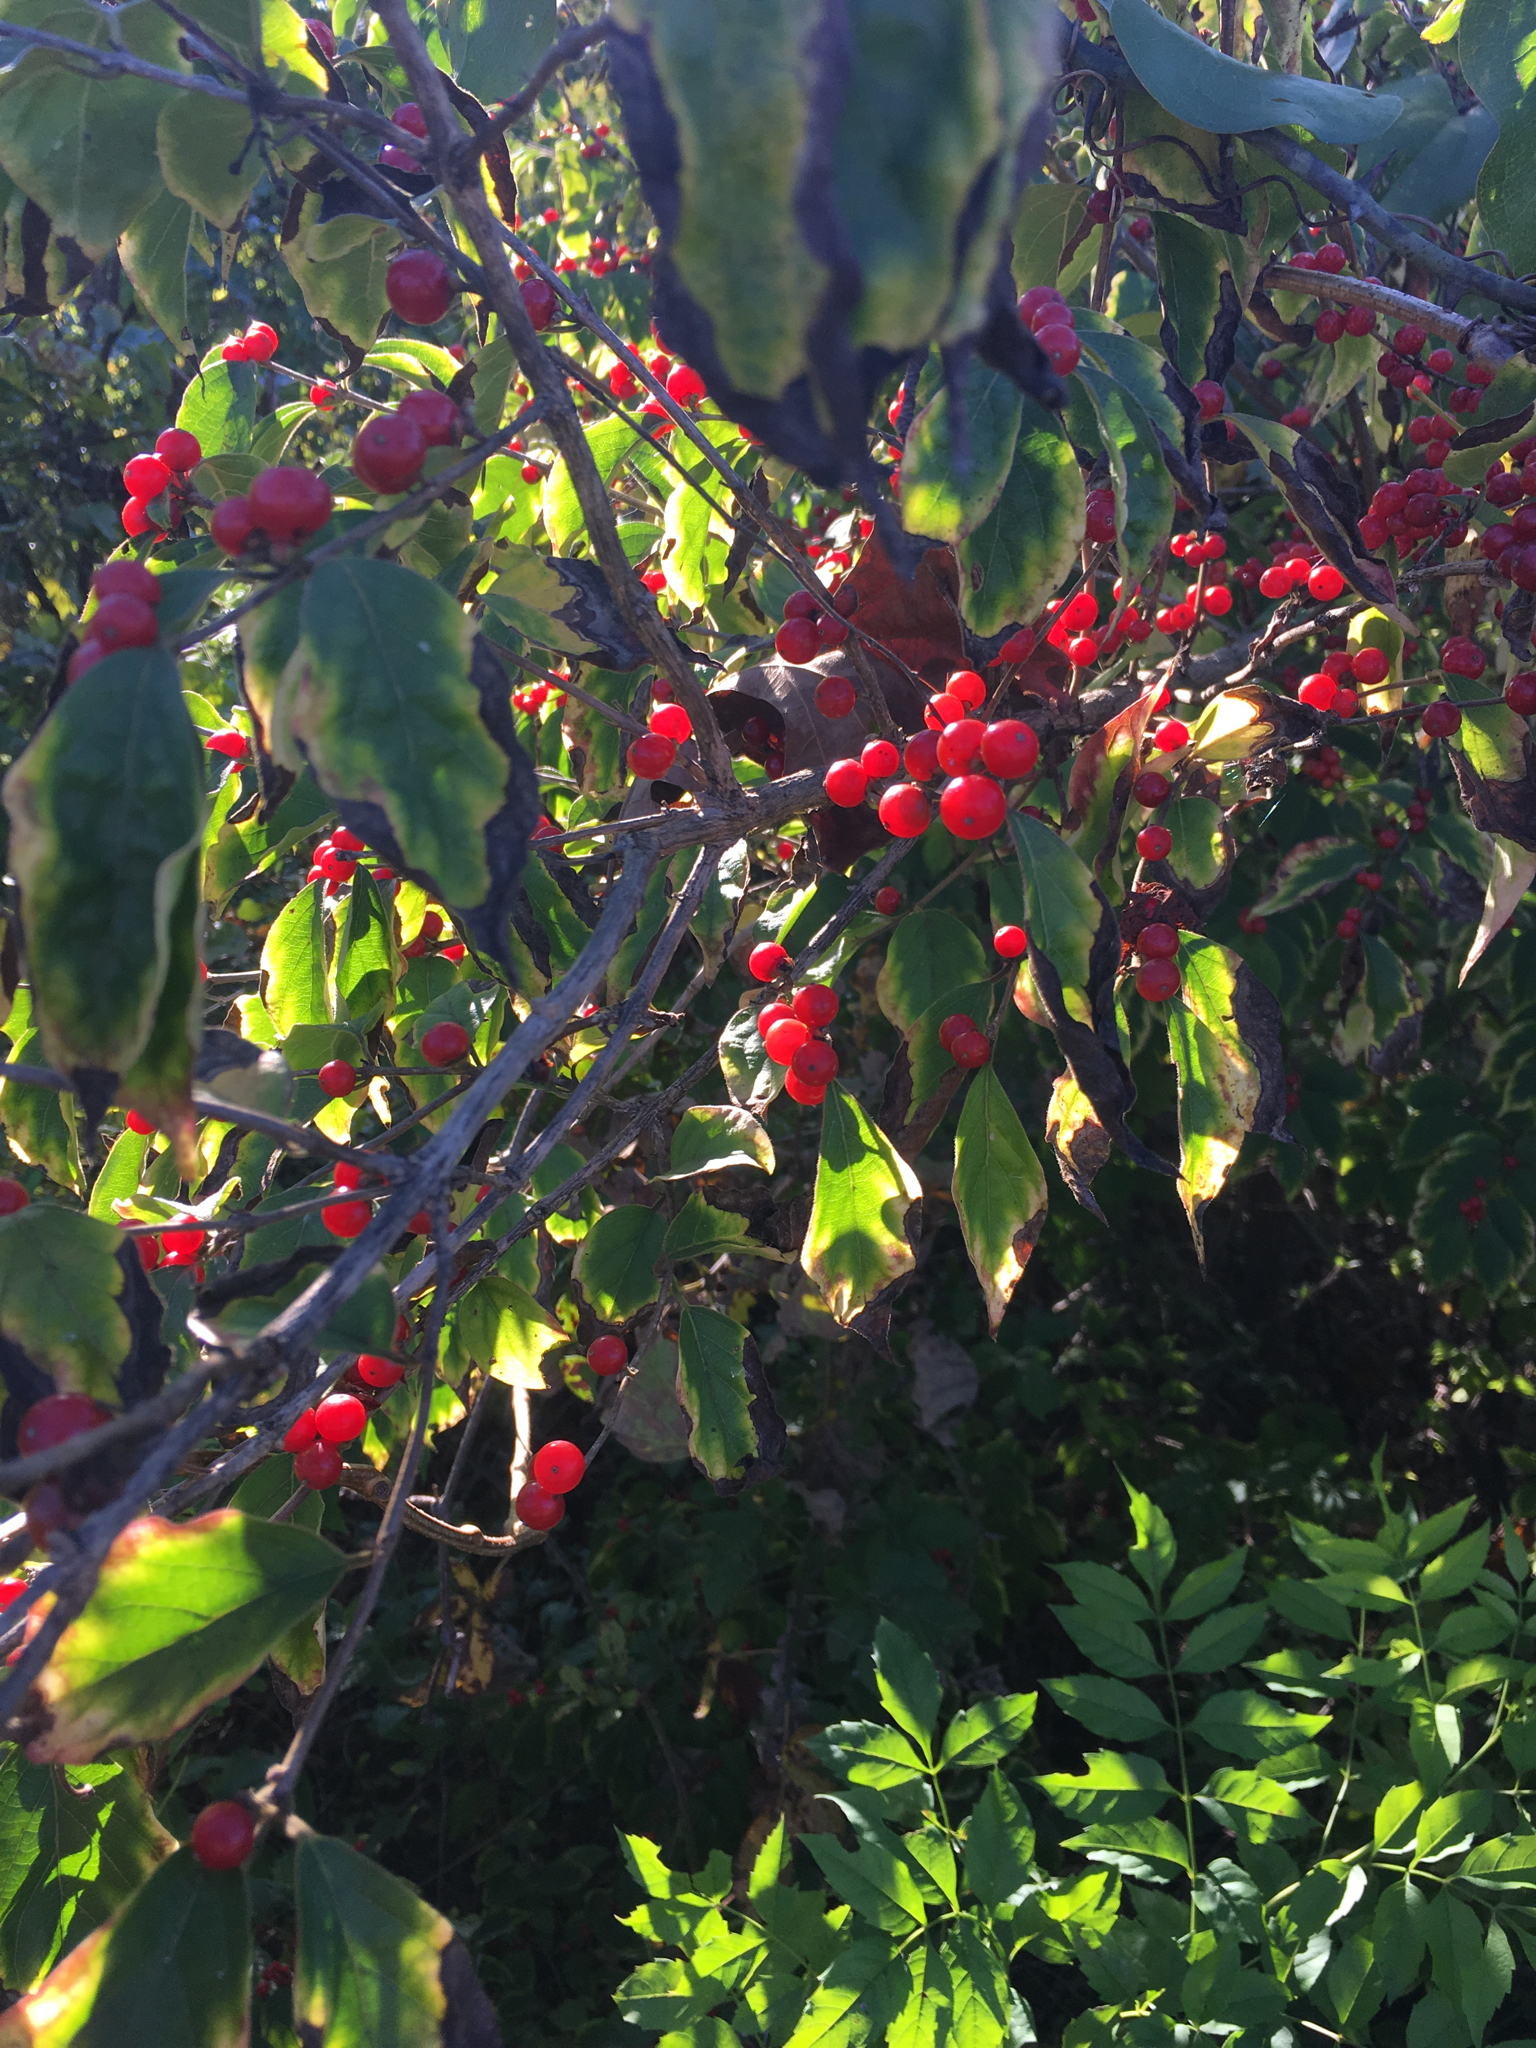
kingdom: Plantae
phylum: Tracheophyta
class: Magnoliopsida
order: Dipsacales
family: Caprifoliaceae
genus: Lonicera
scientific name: Lonicera maackii
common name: Amur honeysuckle
